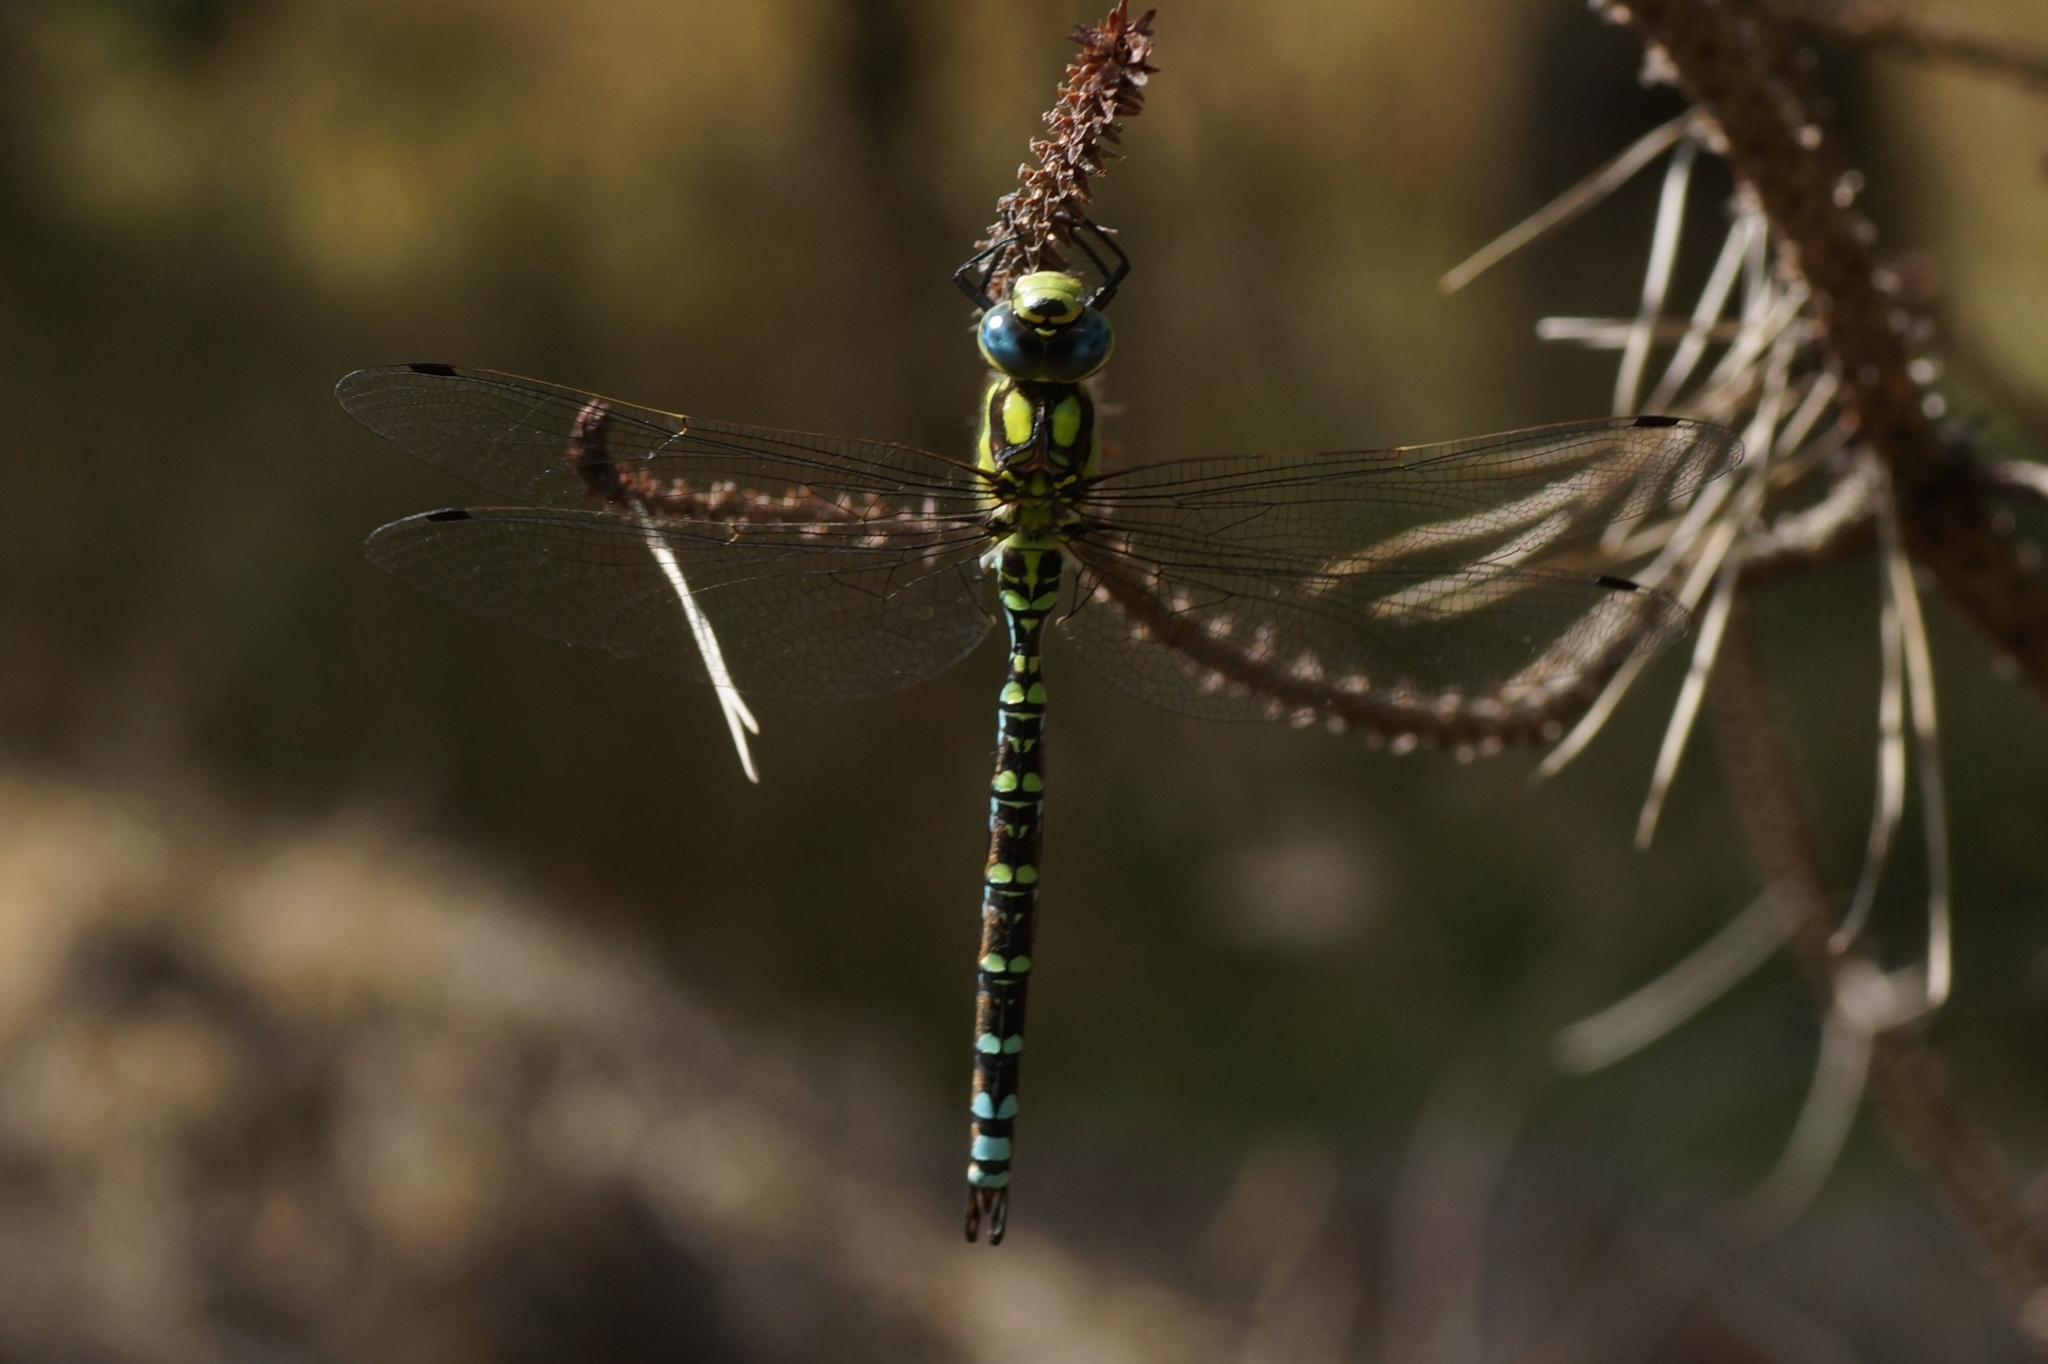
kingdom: Animalia
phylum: Arthropoda
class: Insecta
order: Odonata
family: Aeshnidae
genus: Aeshna
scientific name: Aeshna cyanea
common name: Southern hawker
